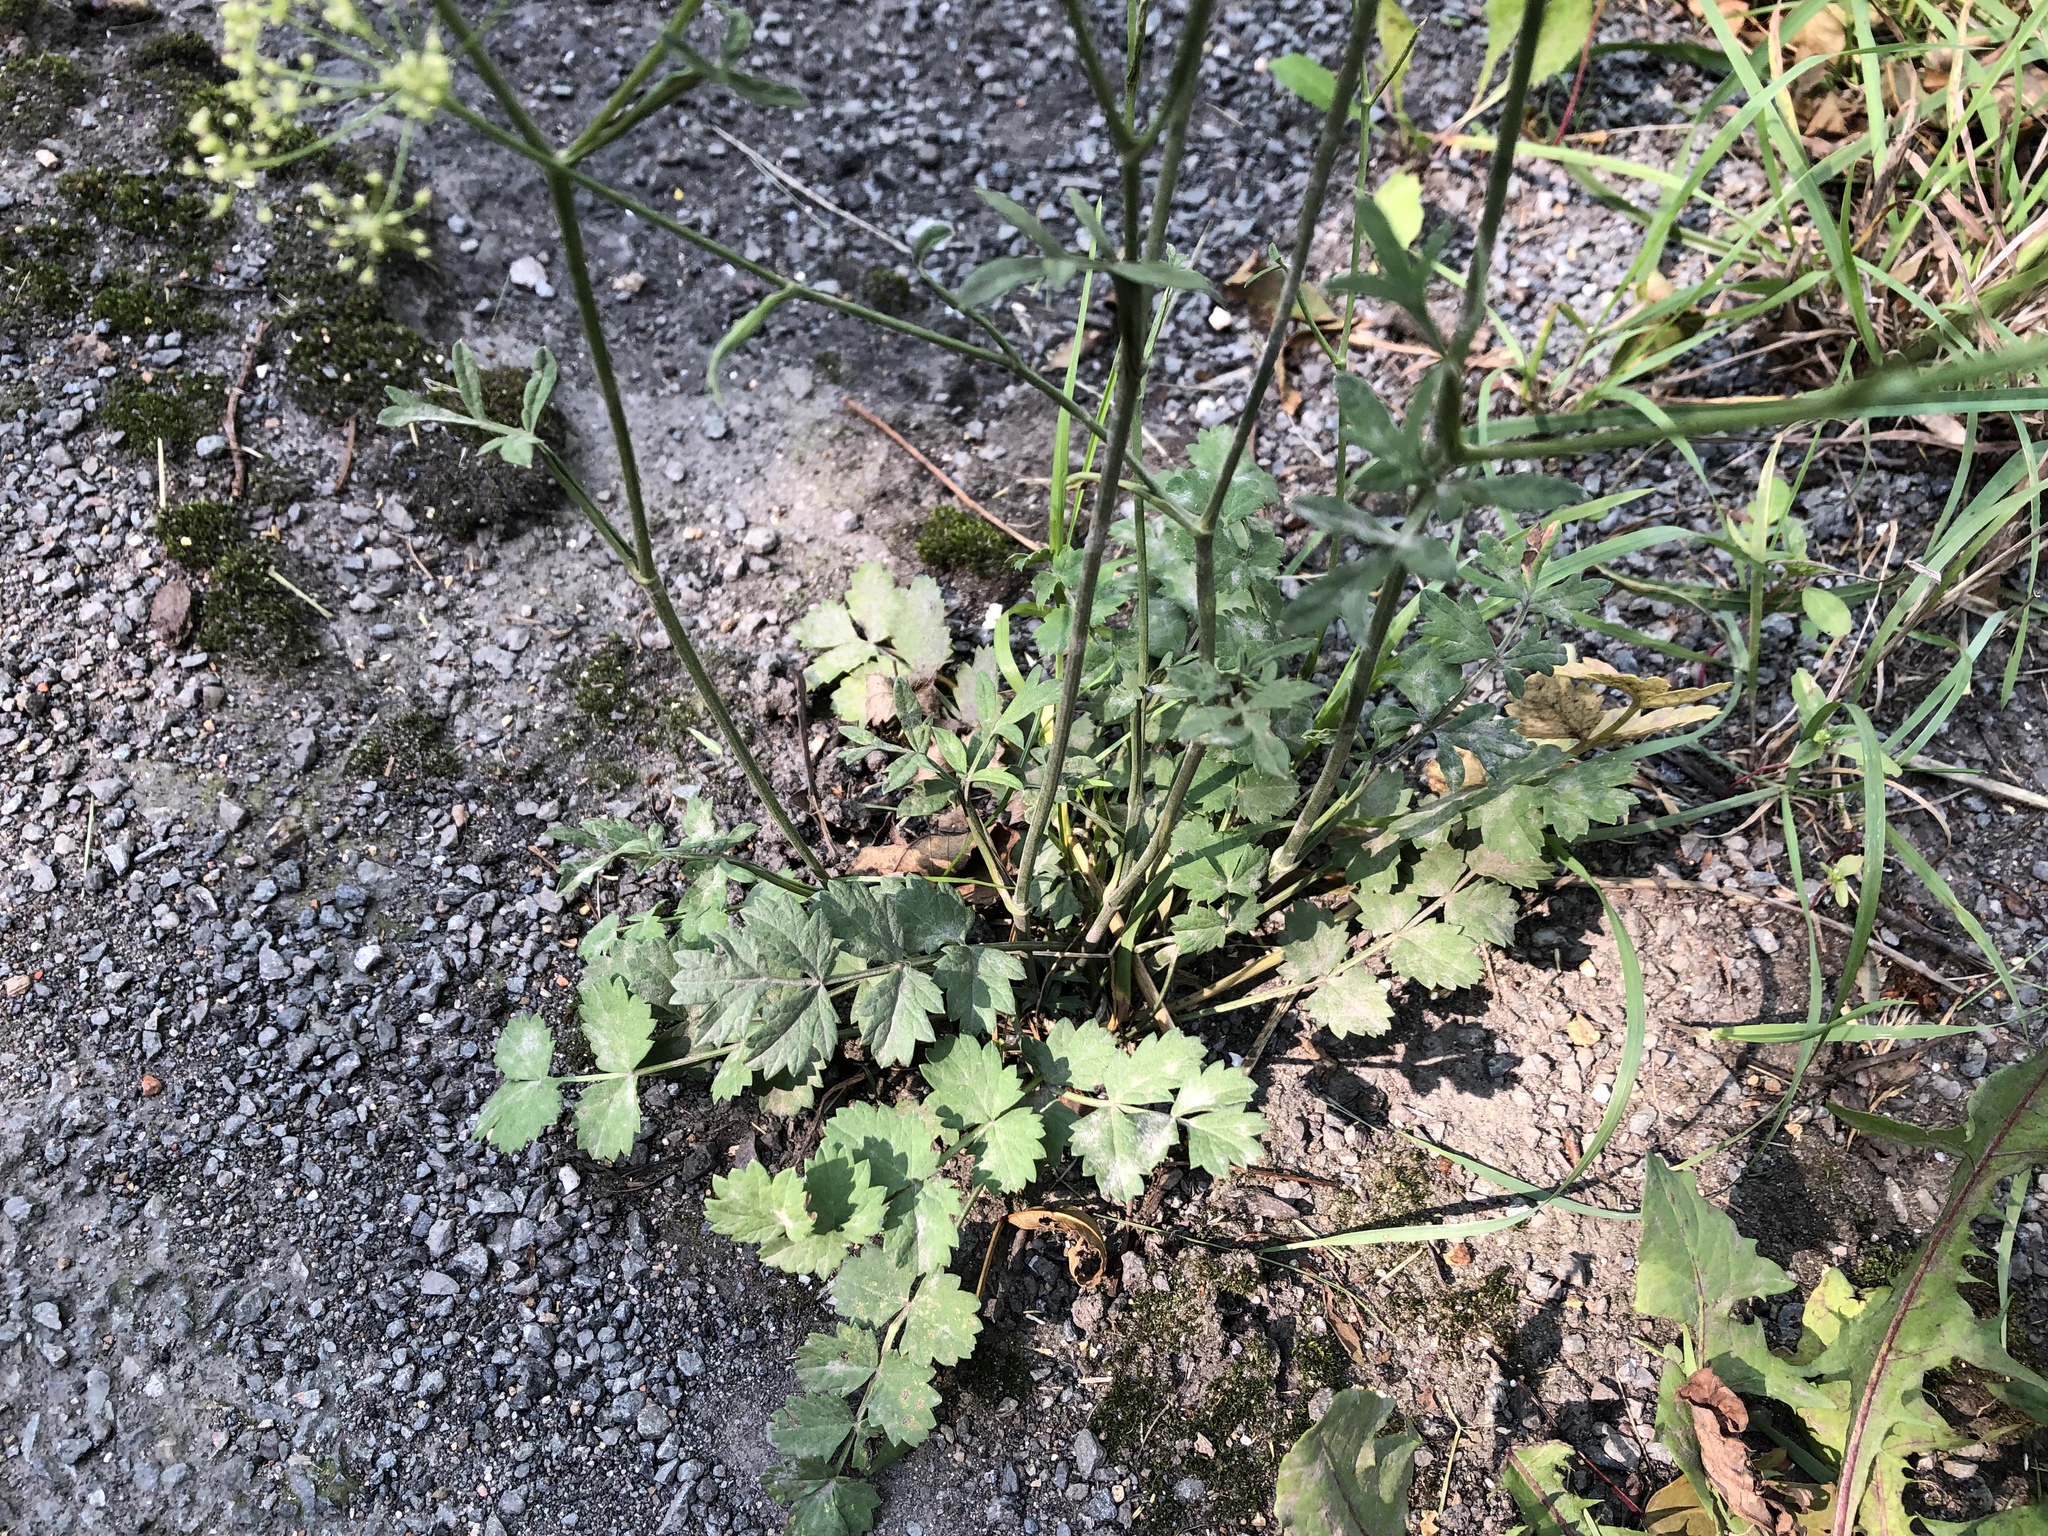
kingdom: Plantae
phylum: Tracheophyta
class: Magnoliopsida
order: Apiales
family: Apiaceae
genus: Pimpinella
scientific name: Pimpinella saxifraga
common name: Burnet-saxifrage
